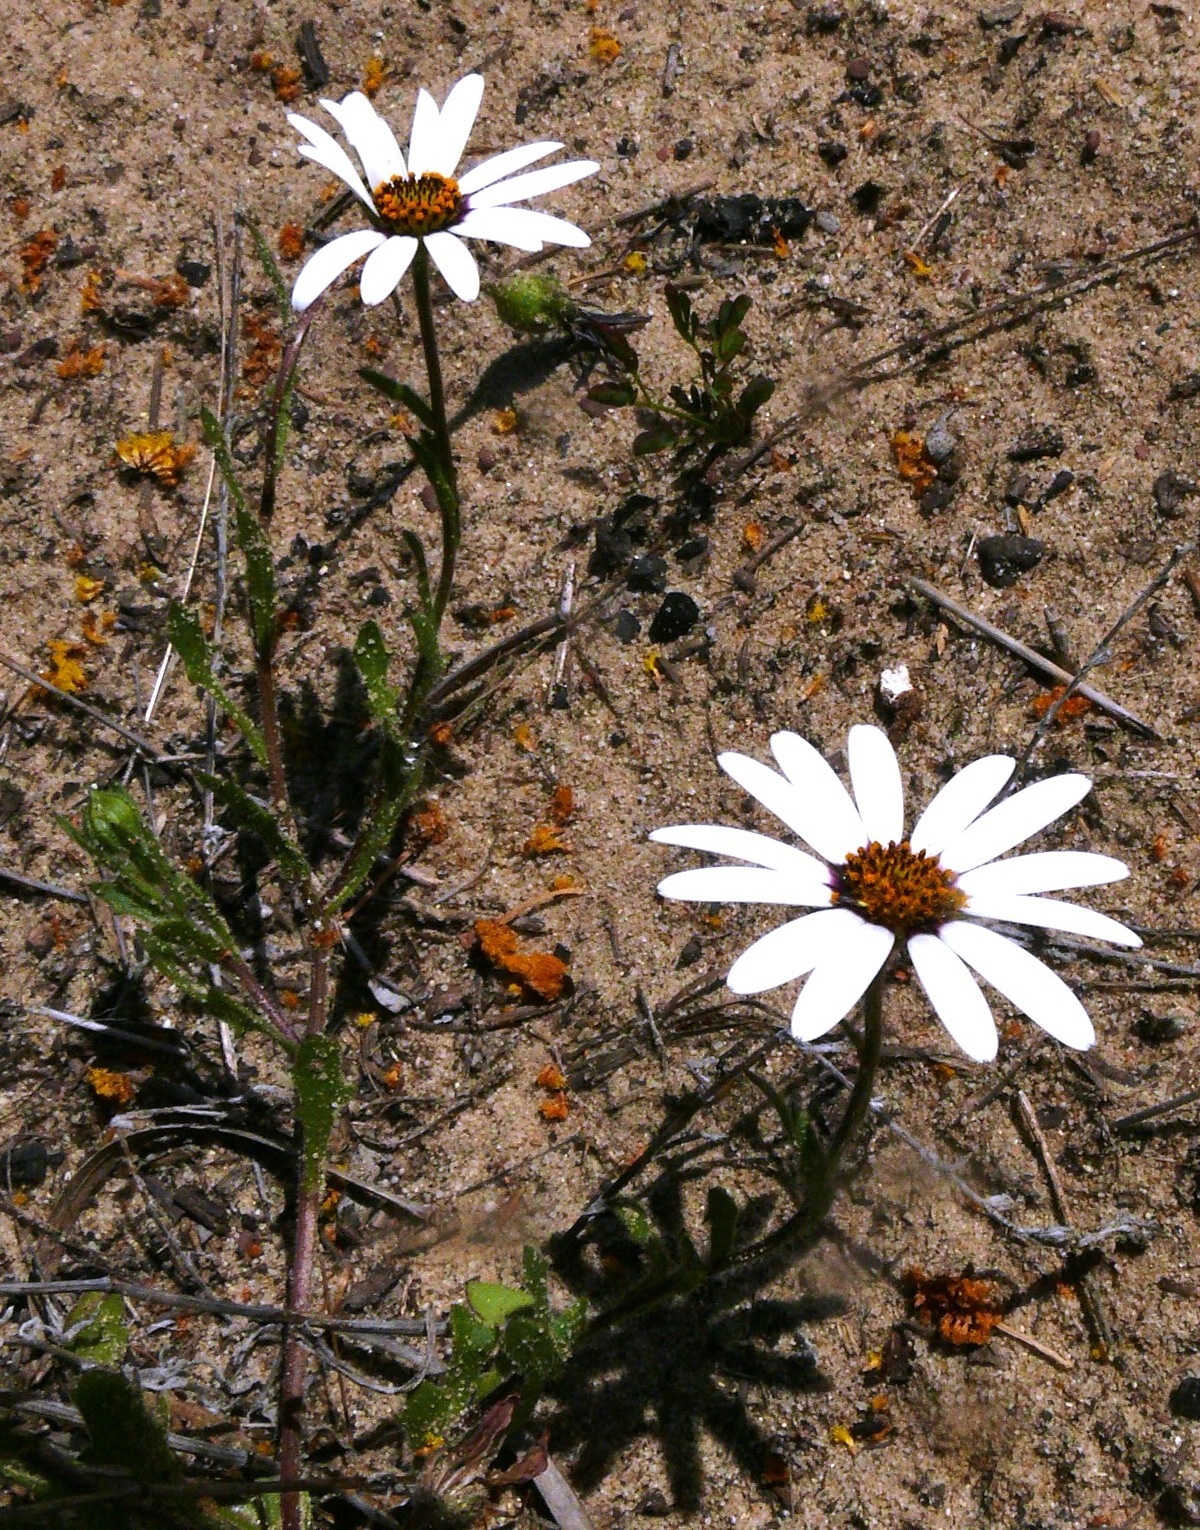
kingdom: Plantae
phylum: Tracheophyta
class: Magnoliopsida
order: Asterales
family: Asteraceae
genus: Dimorphotheca
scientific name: Dimorphotheca pluvialis
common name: Weather prophet
